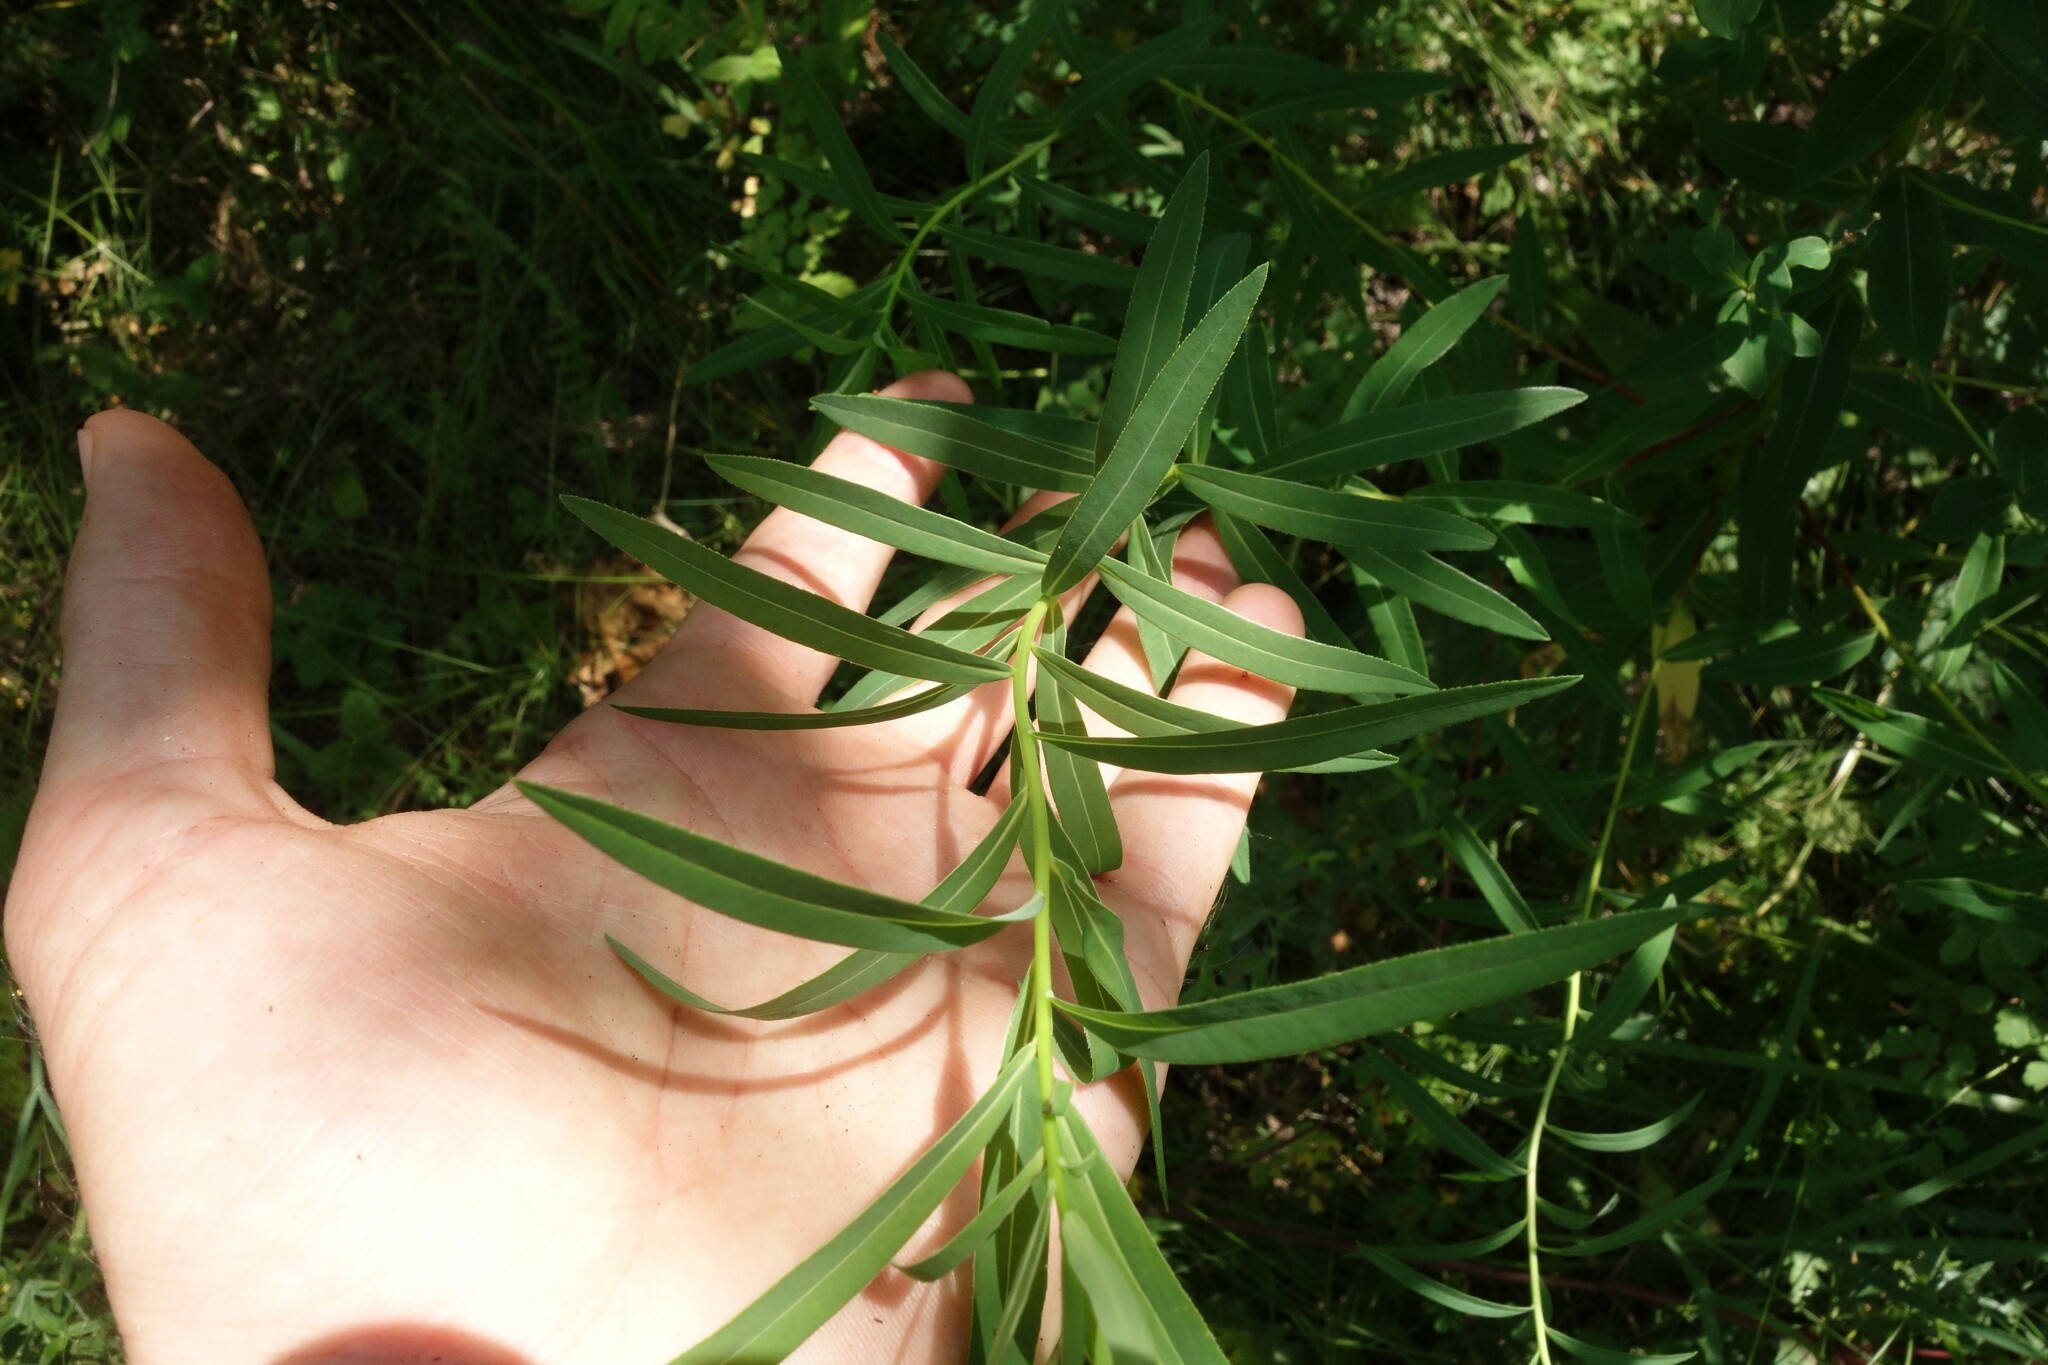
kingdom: Plantae
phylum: Tracheophyta
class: Magnoliopsida
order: Malpighiales
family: Euphorbiaceae
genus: Euphorbia
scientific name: Euphorbia semivillosa
